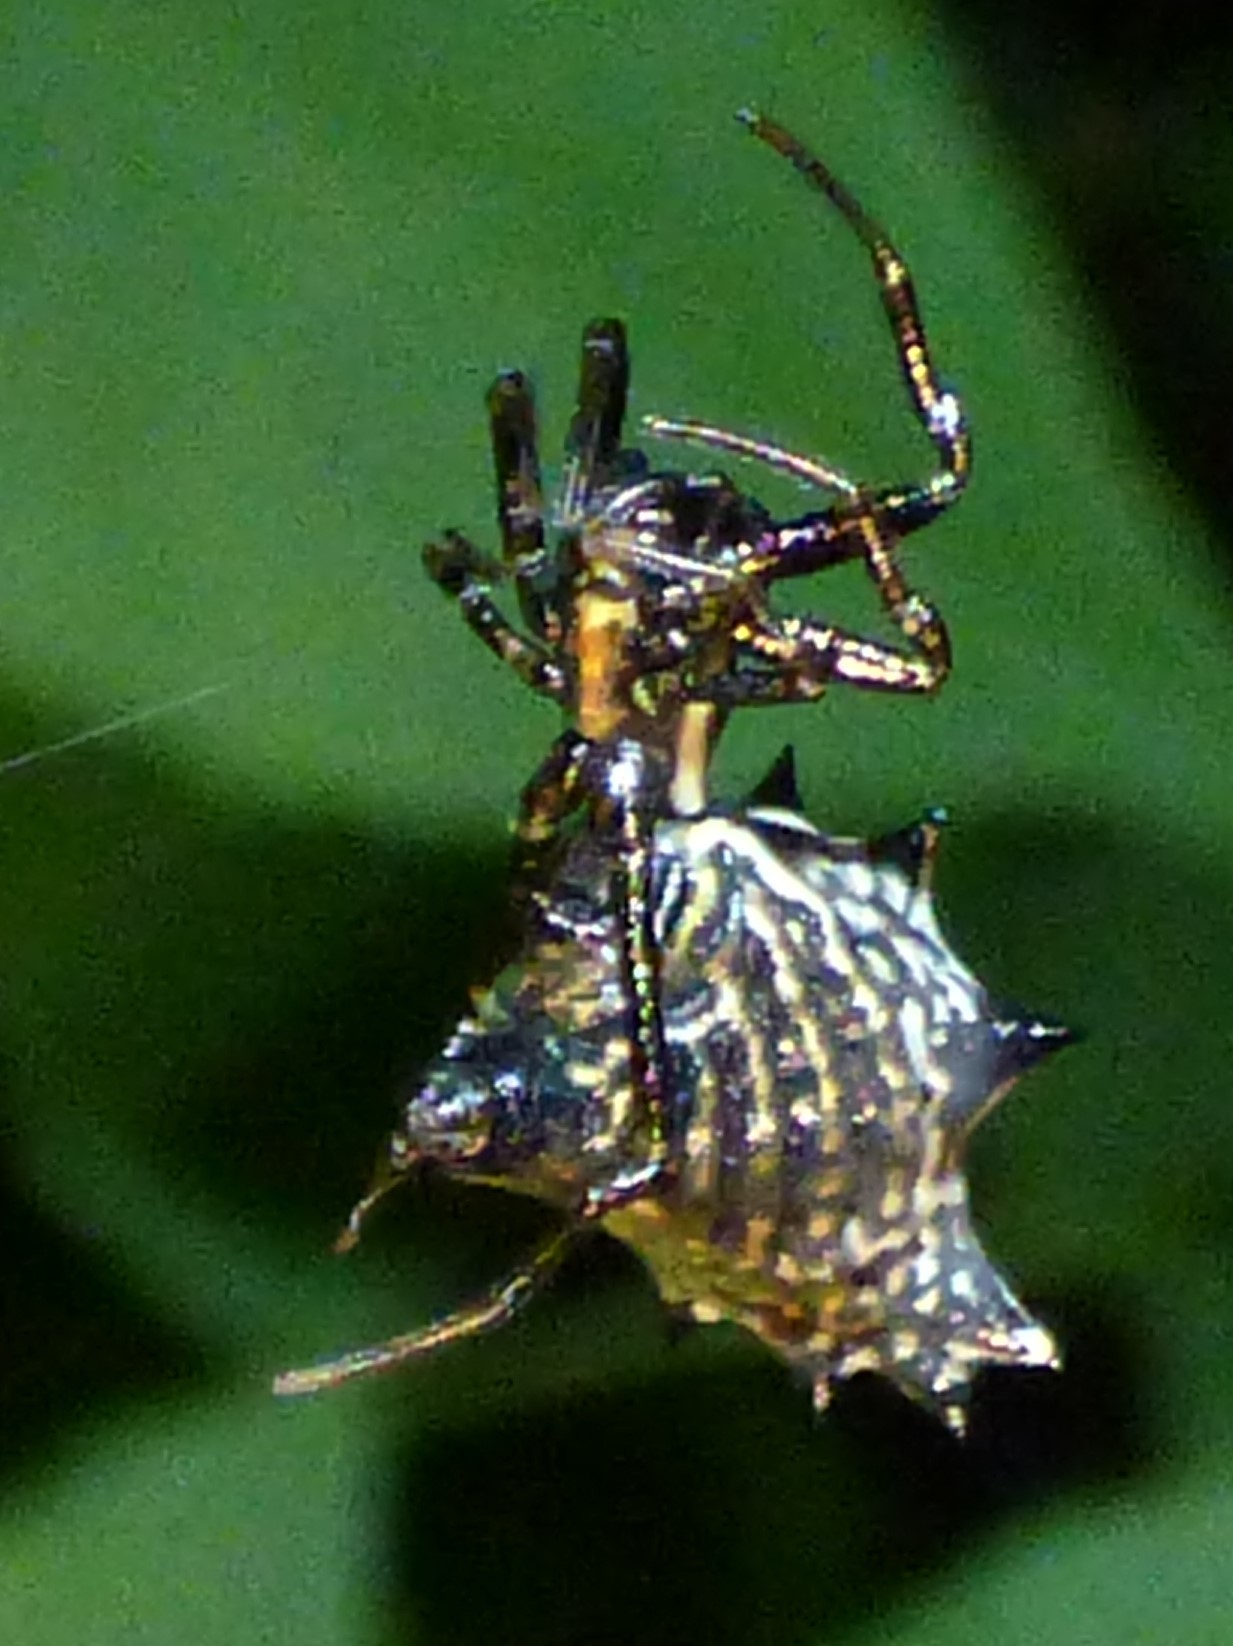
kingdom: Animalia
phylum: Arthropoda
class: Arachnida
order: Araneae
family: Araneidae
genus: Micrathena
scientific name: Micrathena gracilis
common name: Orb weavers
